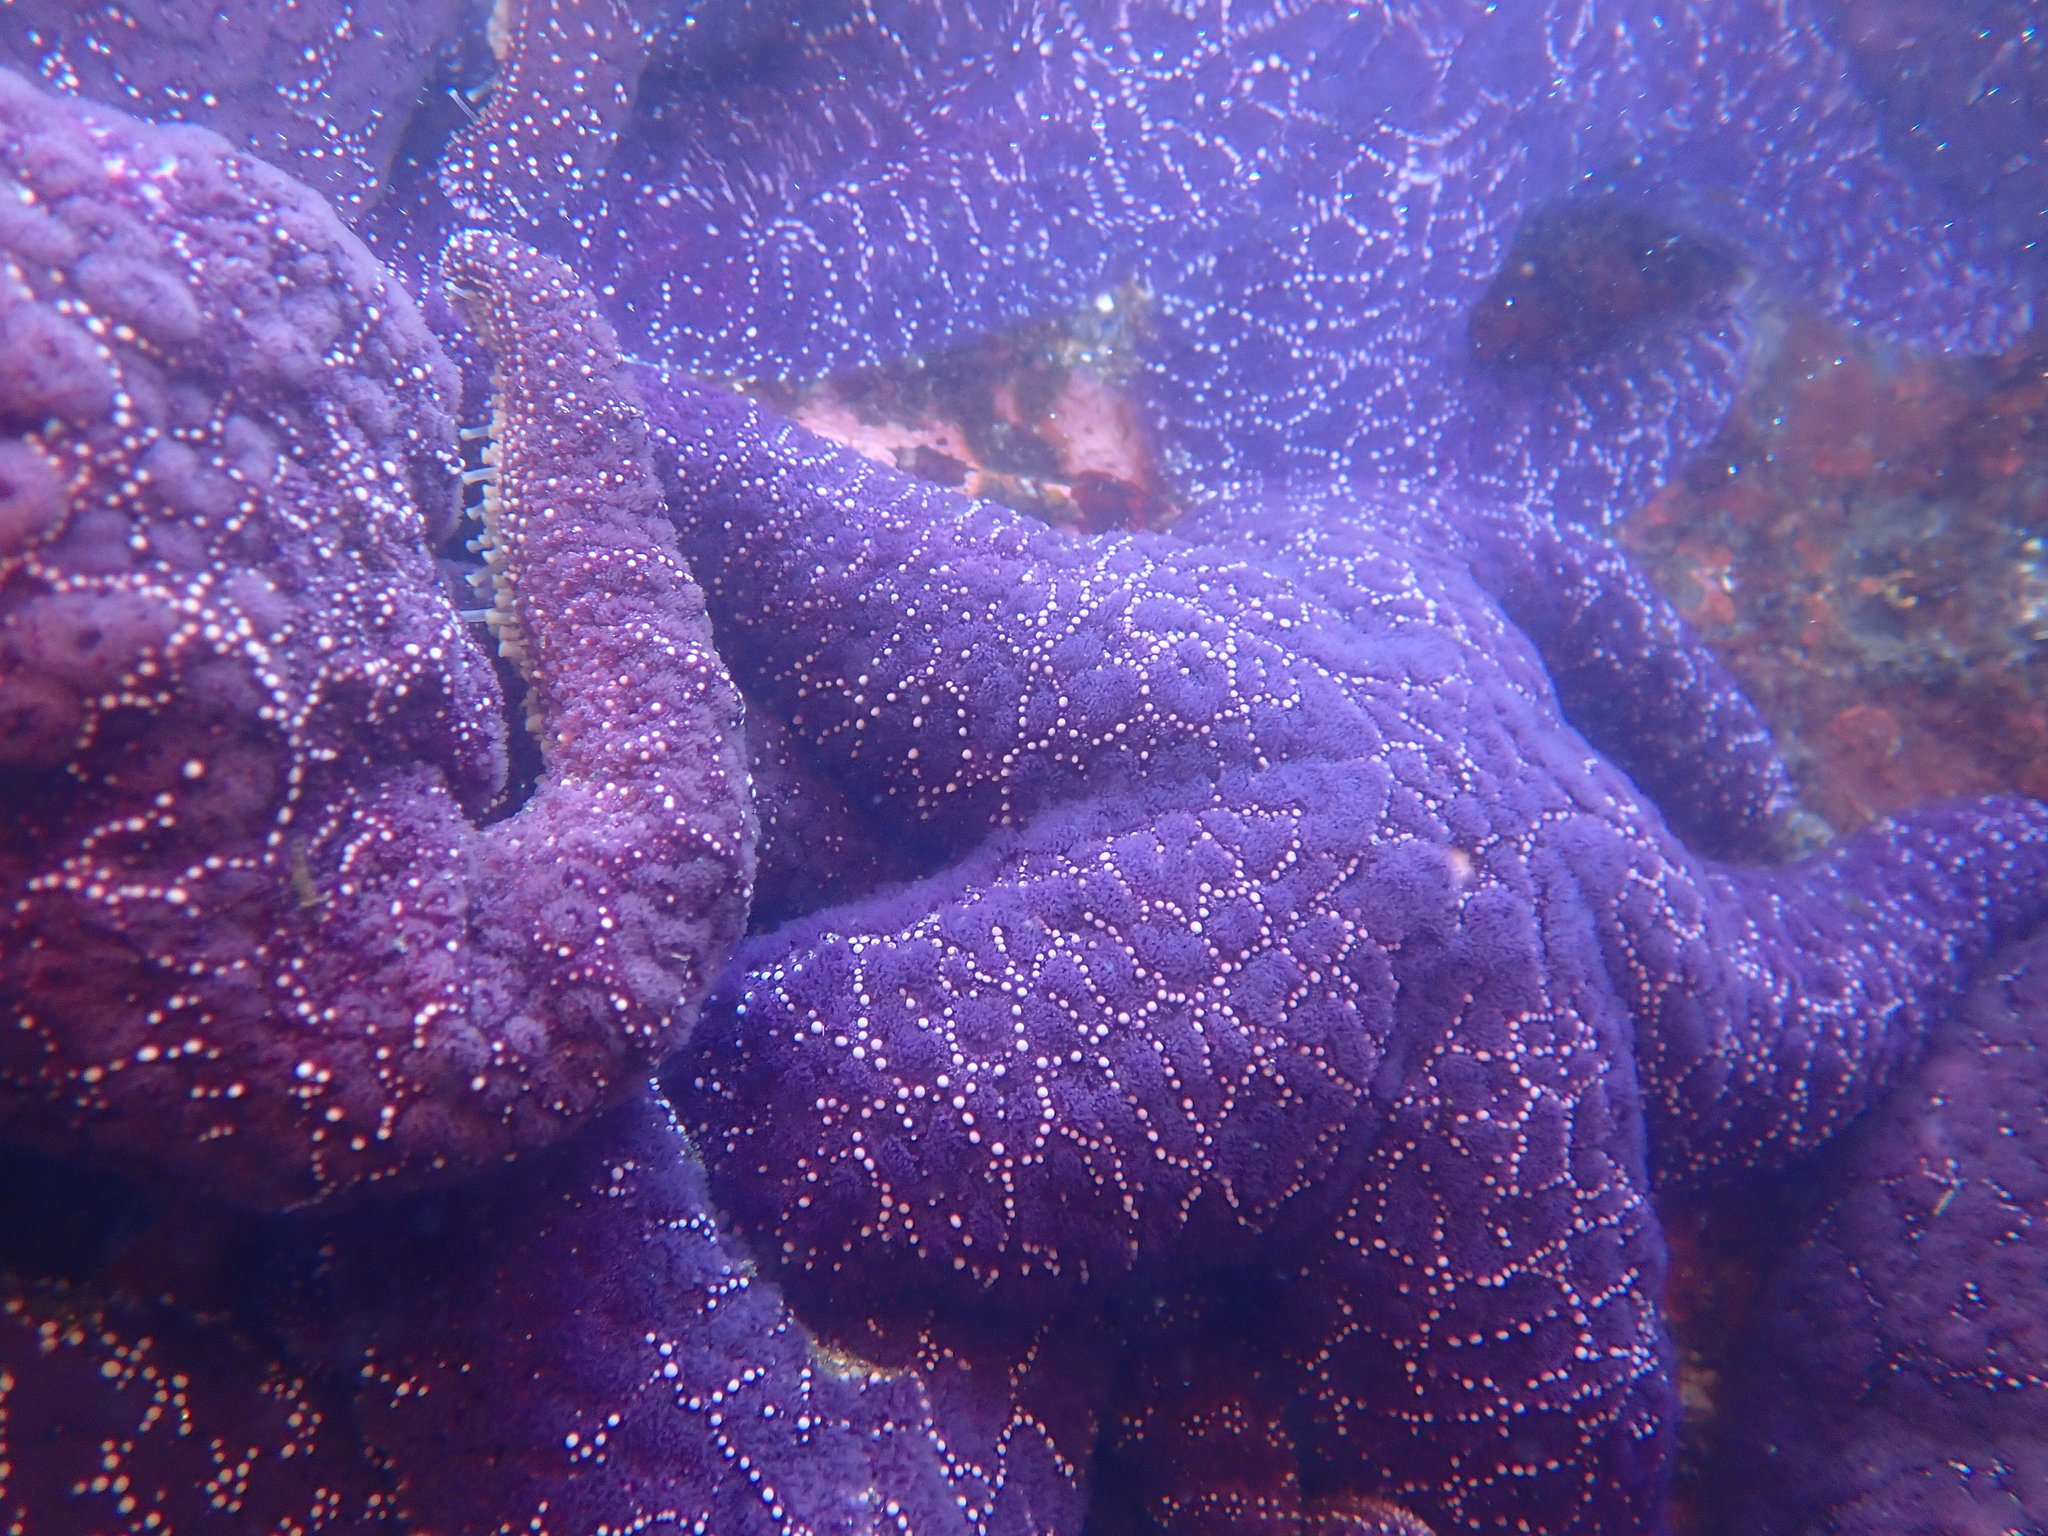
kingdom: Animalia
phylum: Echinodermata
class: Asteroidea
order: Forcipulatida
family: Asteriidae
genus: Pisaster
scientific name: Pisaster ochraceus
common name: Ochre stars
